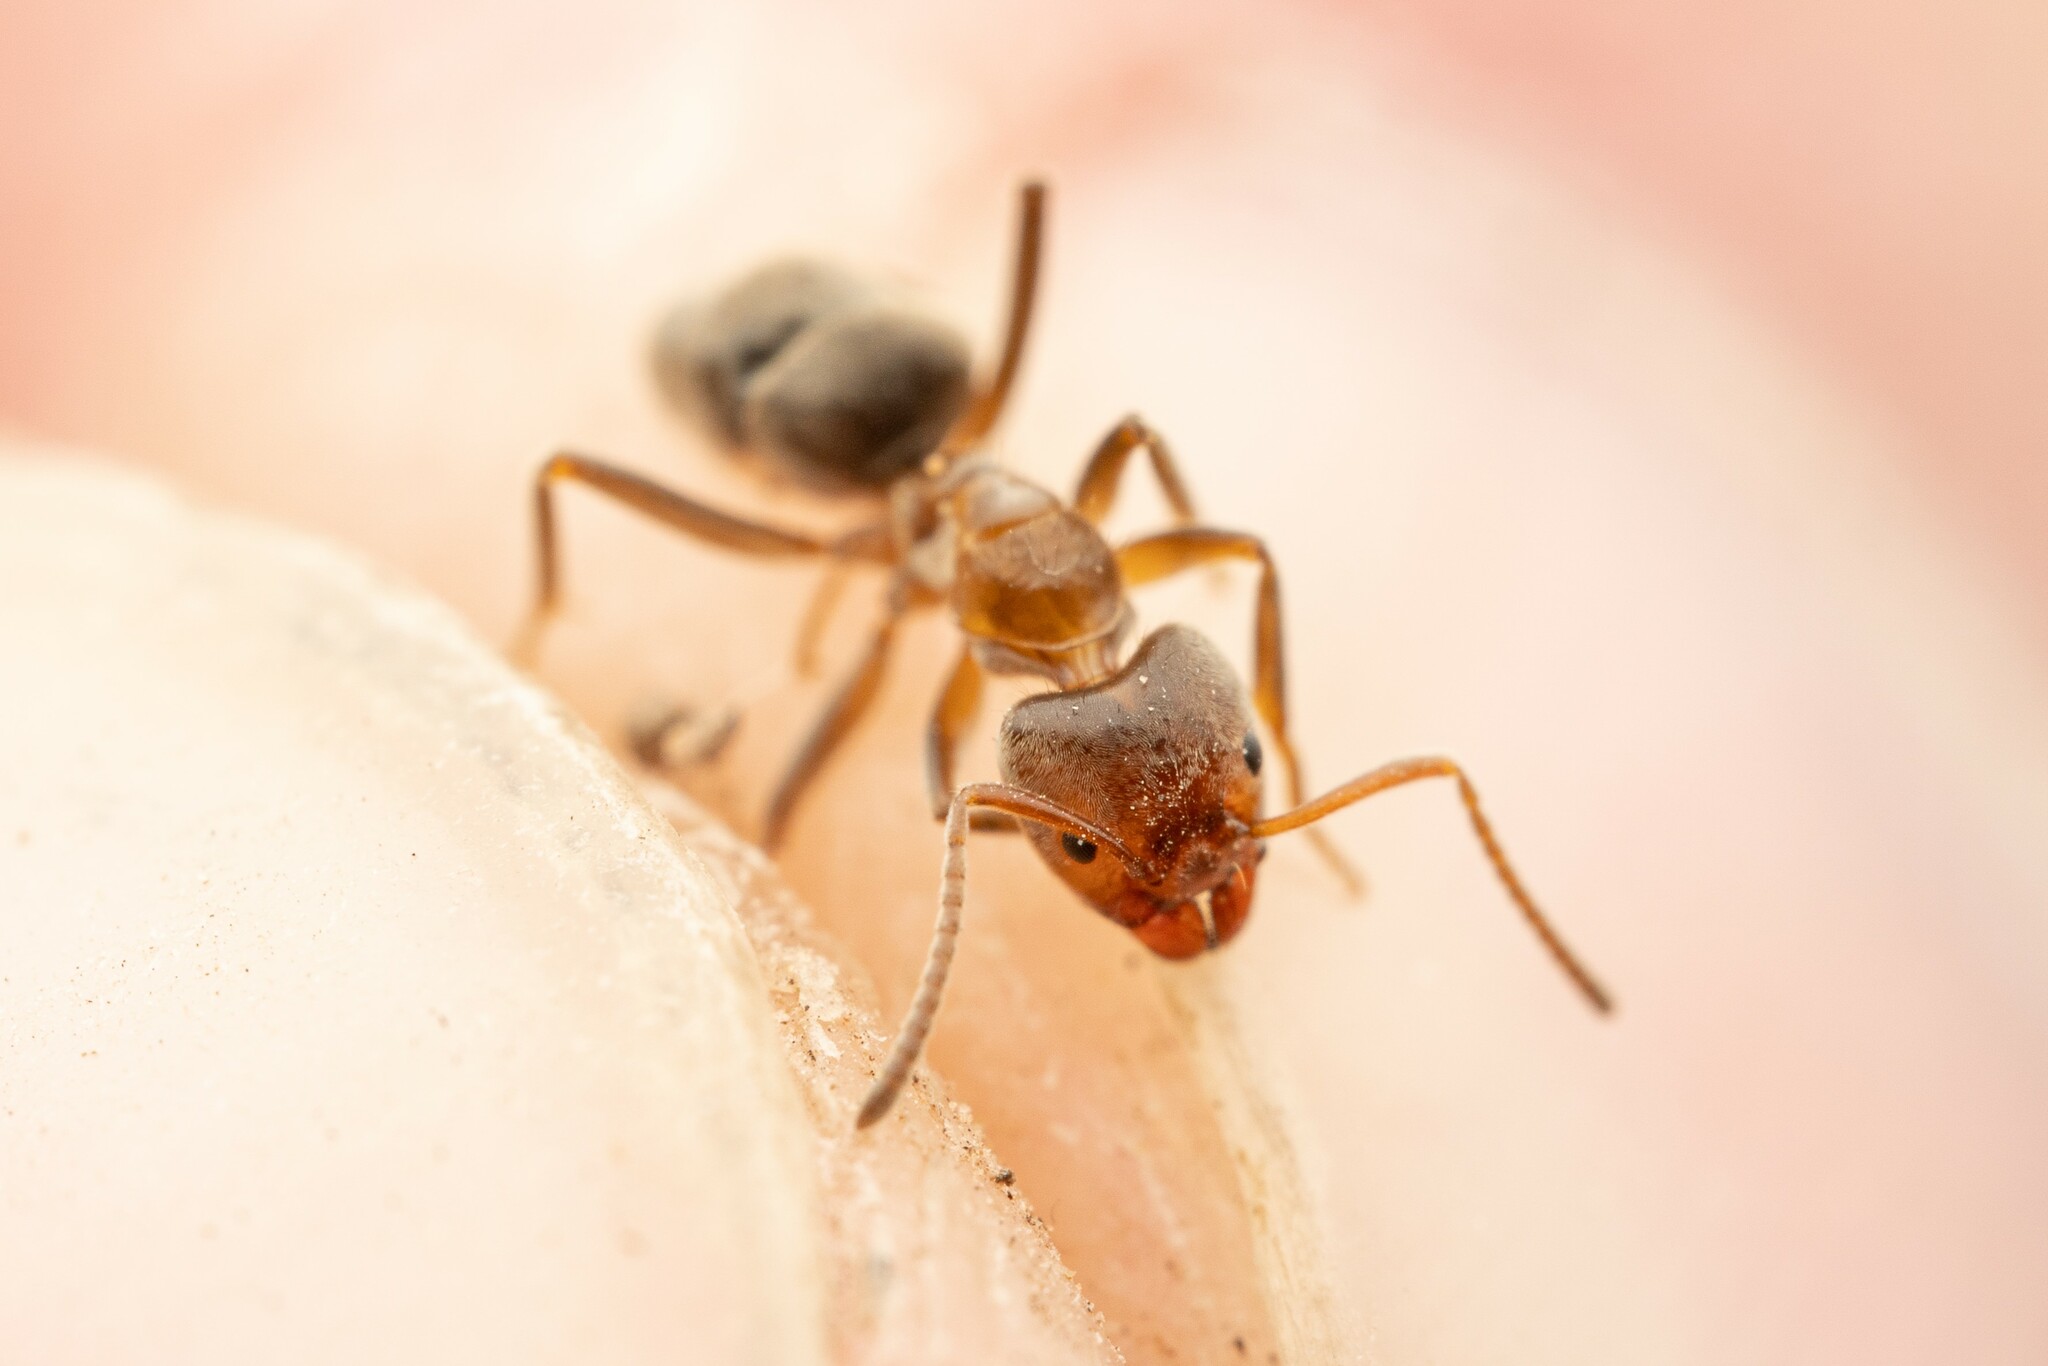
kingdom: Animalia
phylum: Arthropoda
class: Insecta
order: Hymenoptera
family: Formicidae
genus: Liometopum
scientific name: Liometopum apiculatum
